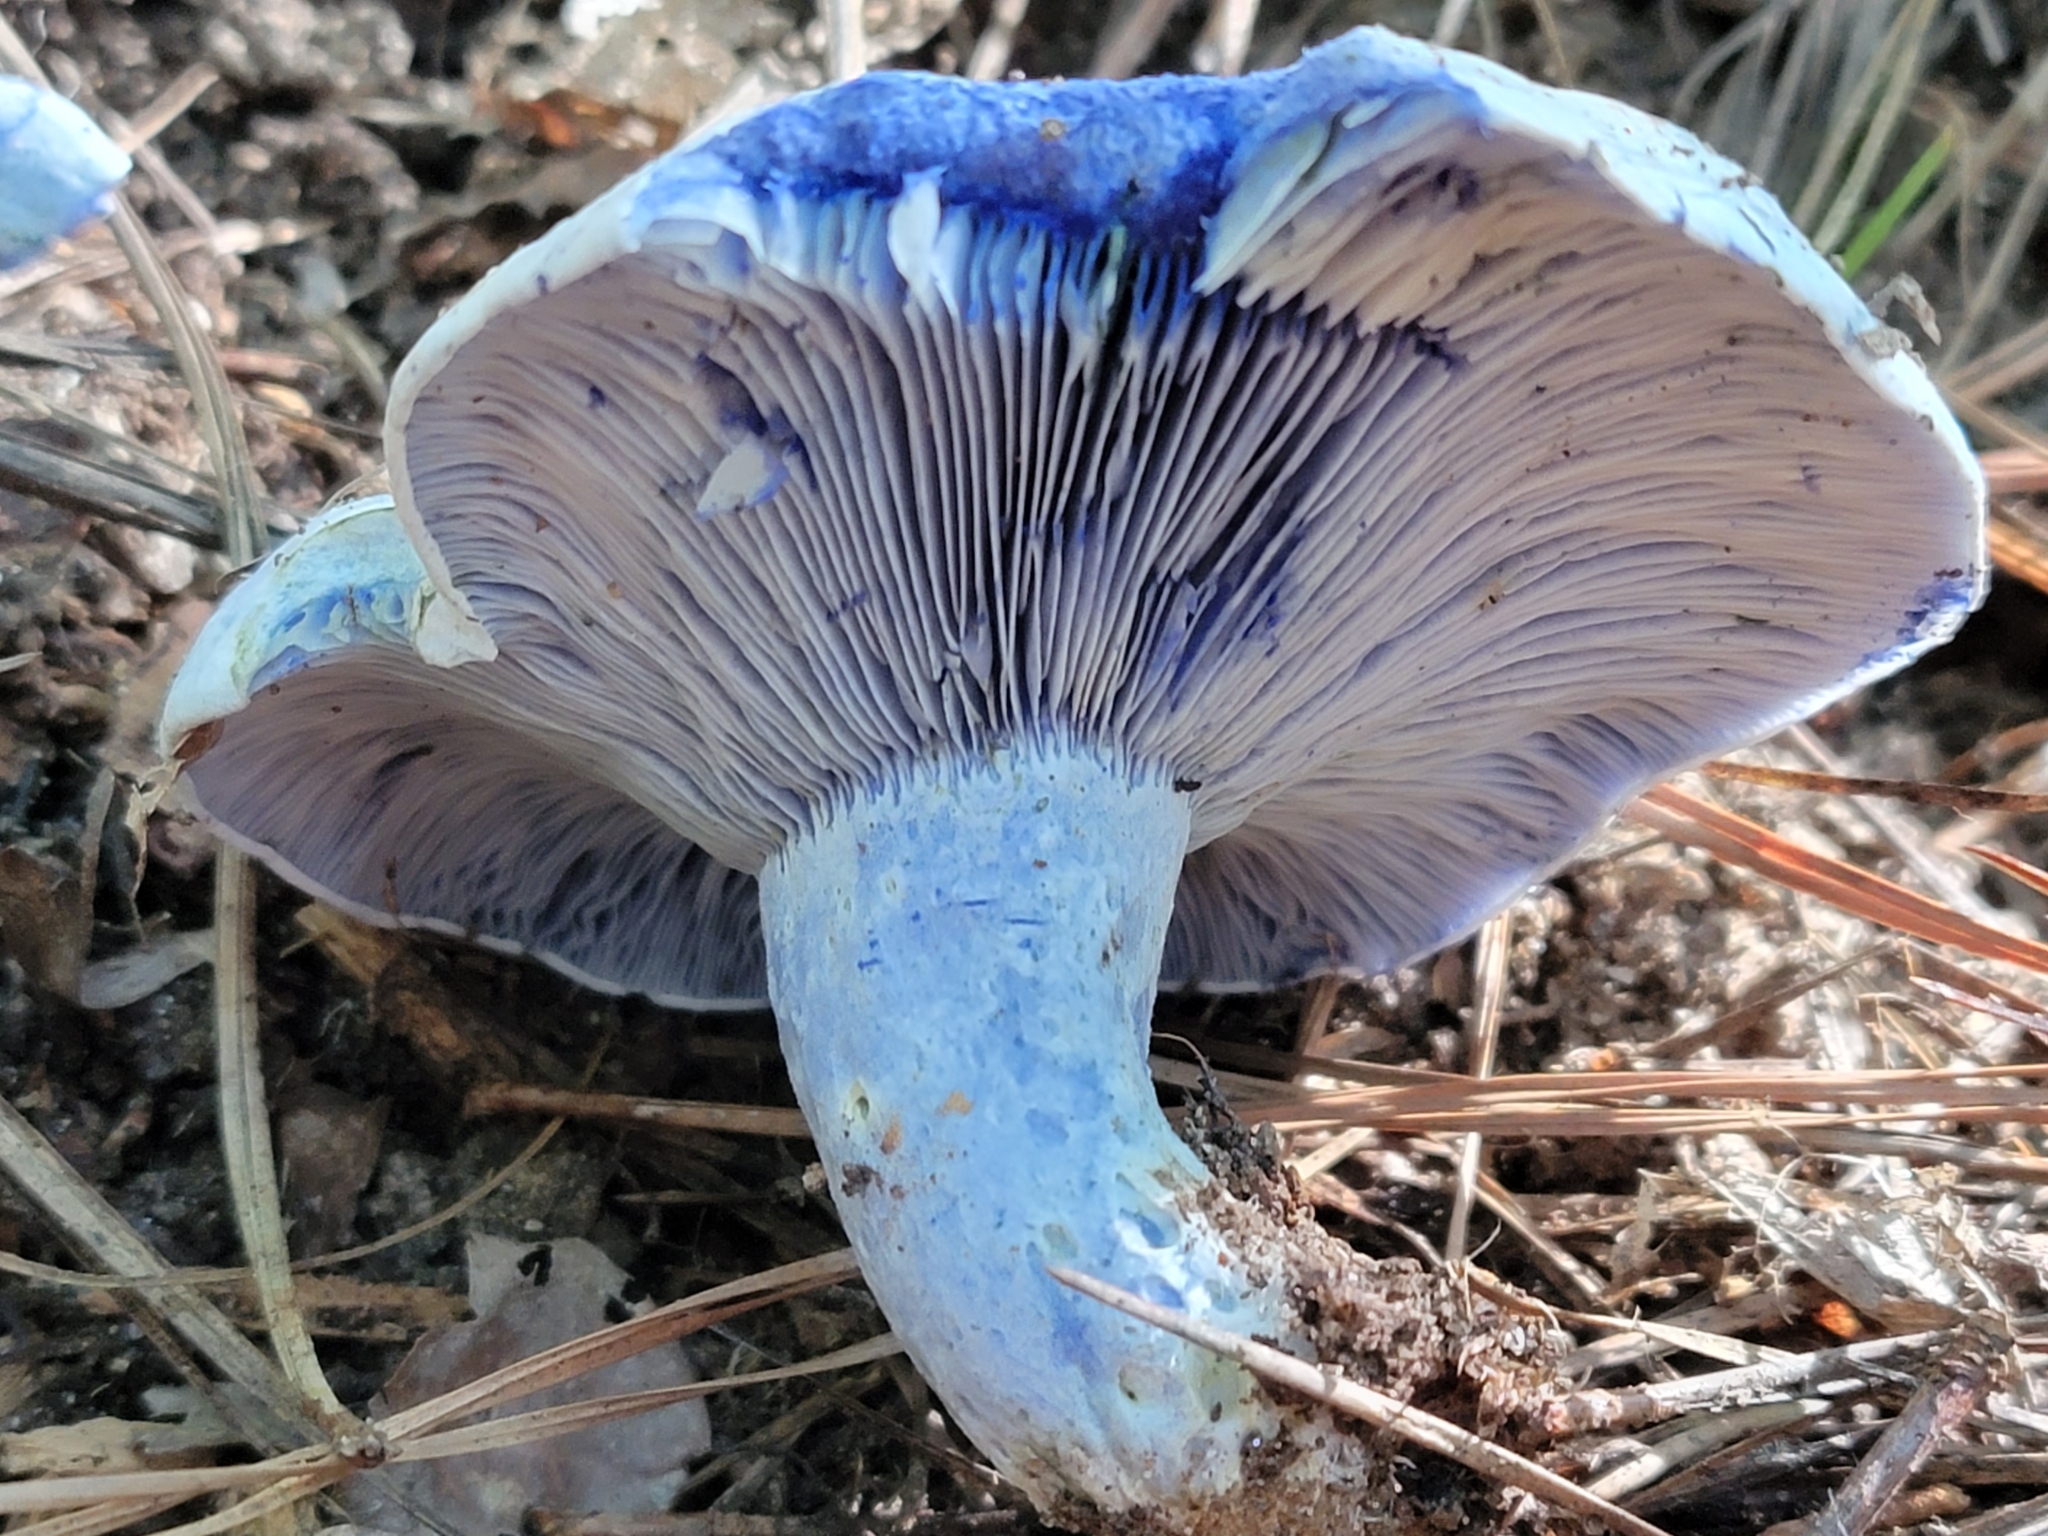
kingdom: Fungi
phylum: Basidiomycota
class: Agaricomycetes
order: Russulales
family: Russulaceae
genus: Lactarius
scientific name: Lactarius indigo
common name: Indigo milk cap
